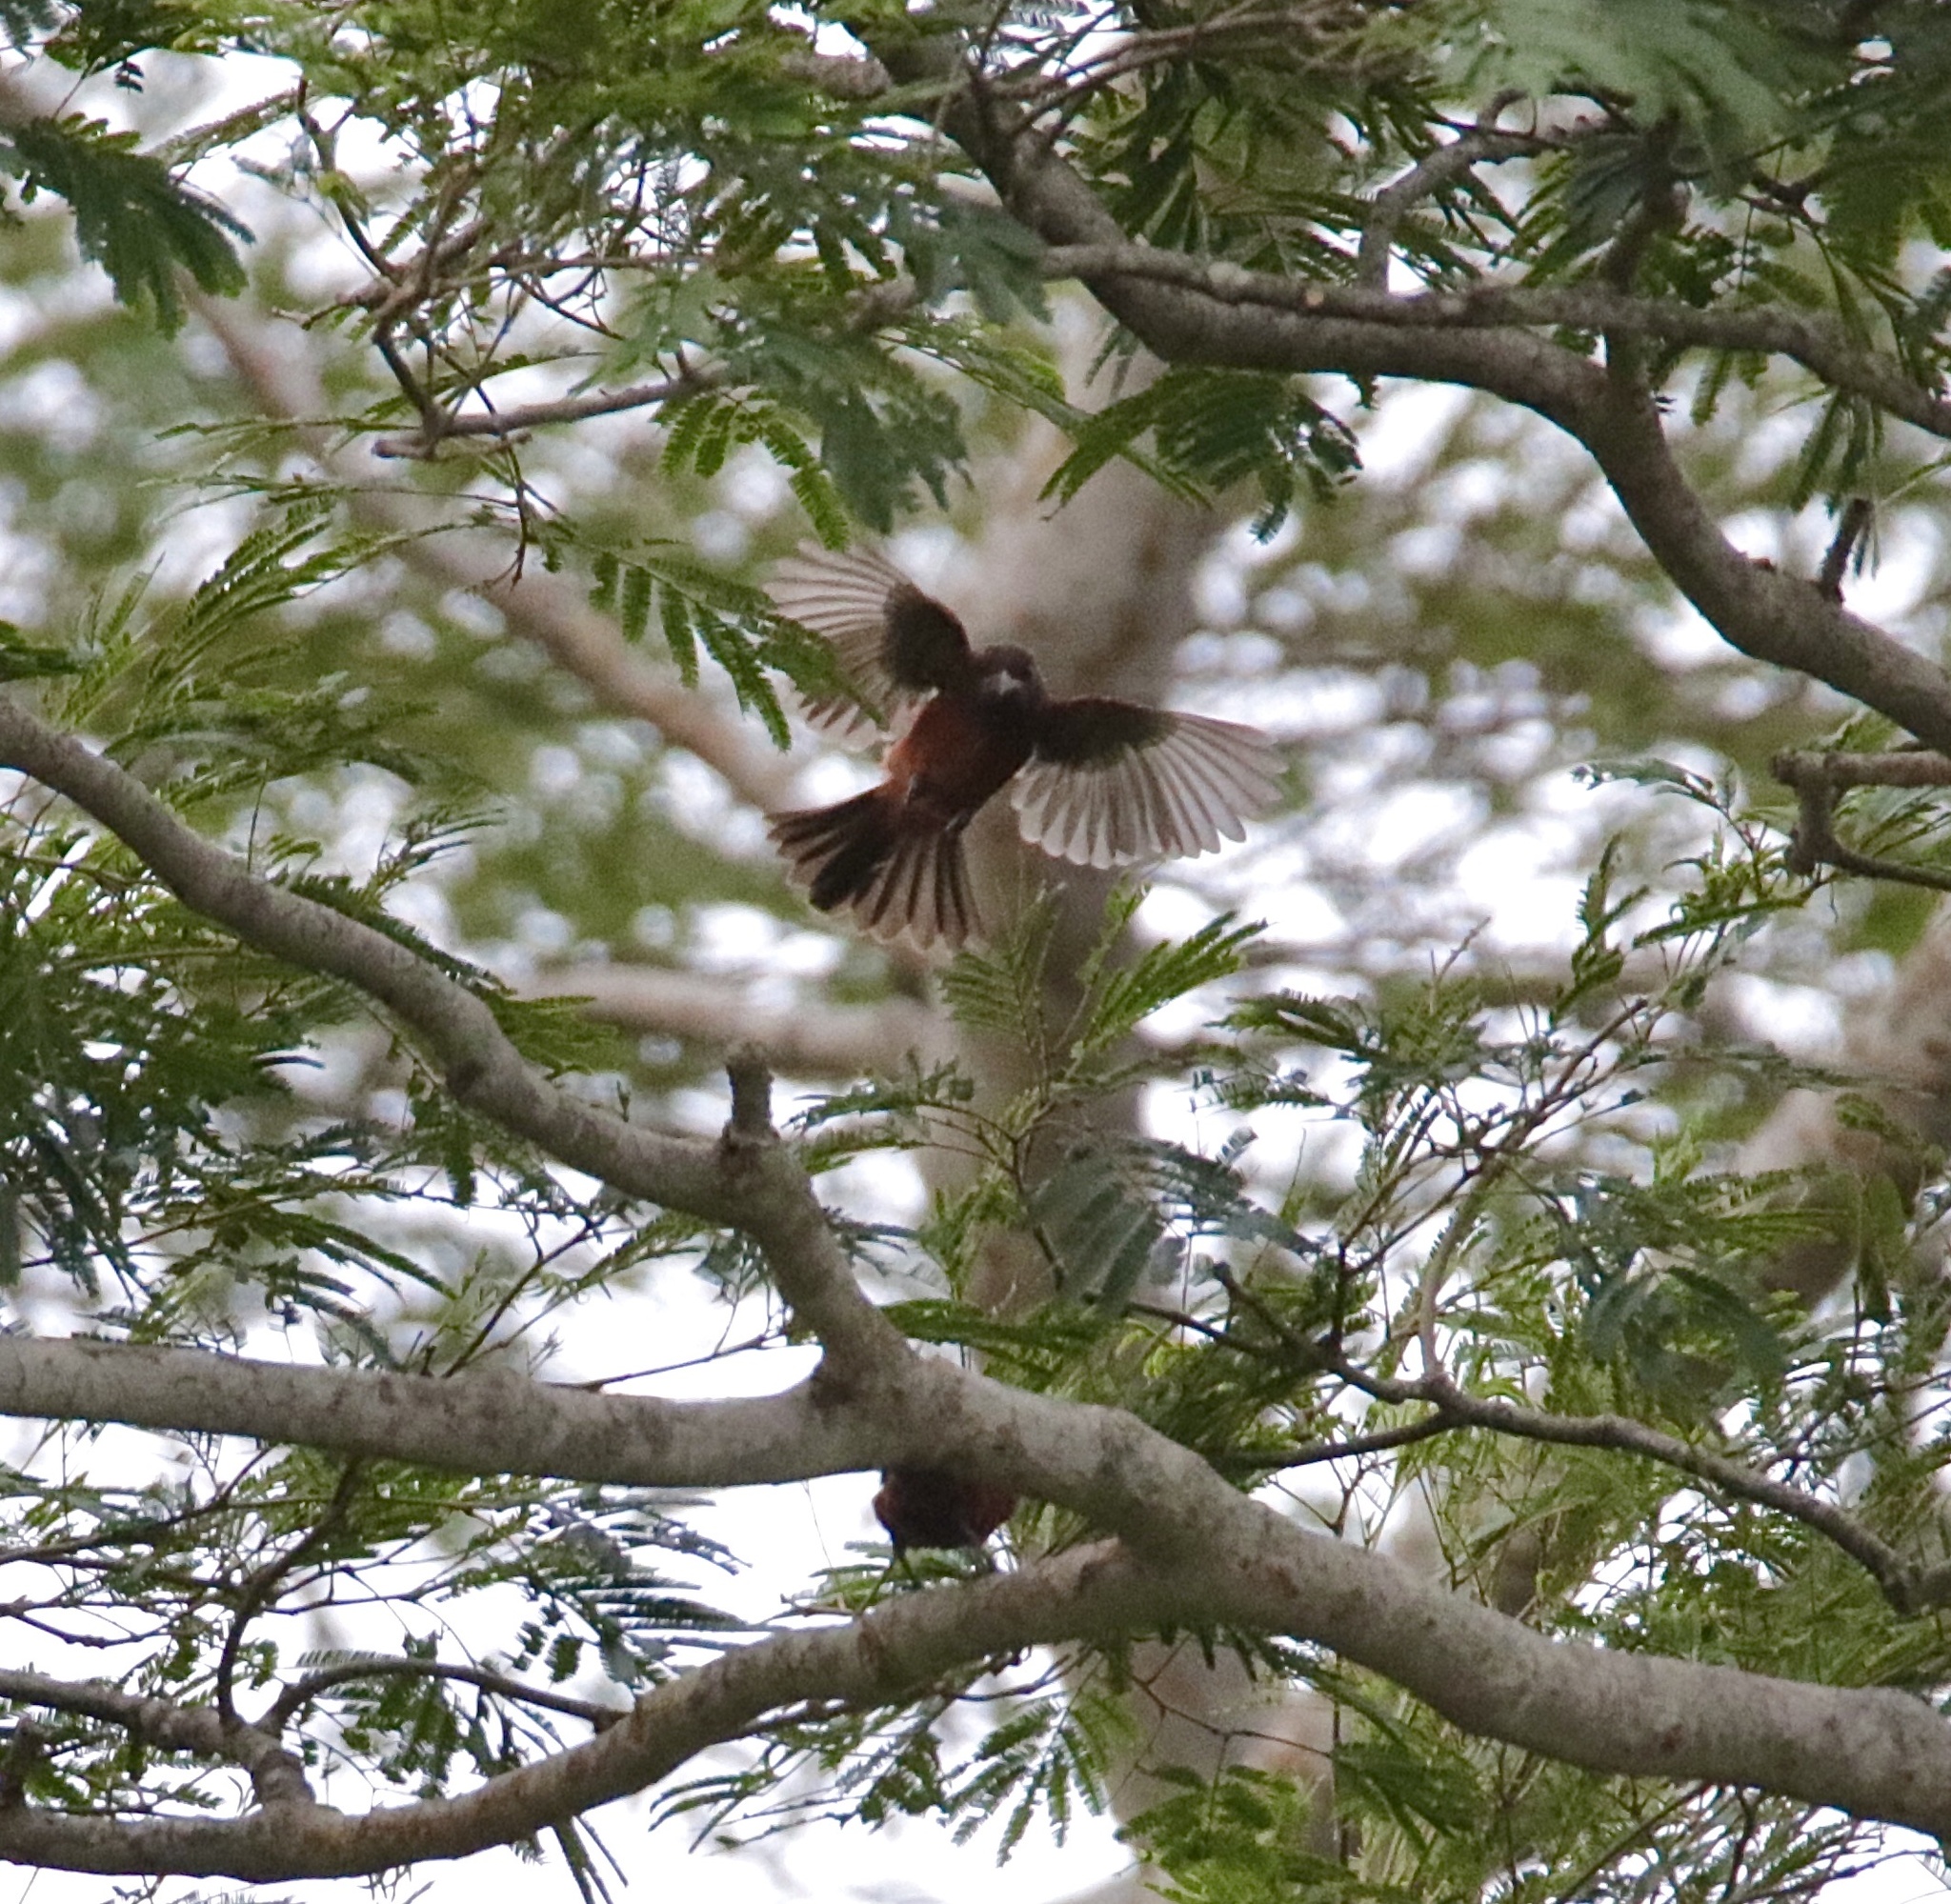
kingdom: Animalia
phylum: Chordata
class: Aves
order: Passeriformes
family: Thraupidae
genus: Ramphocelus
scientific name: Ramphocelus dimidiatus
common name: Crimson-backed tanager
